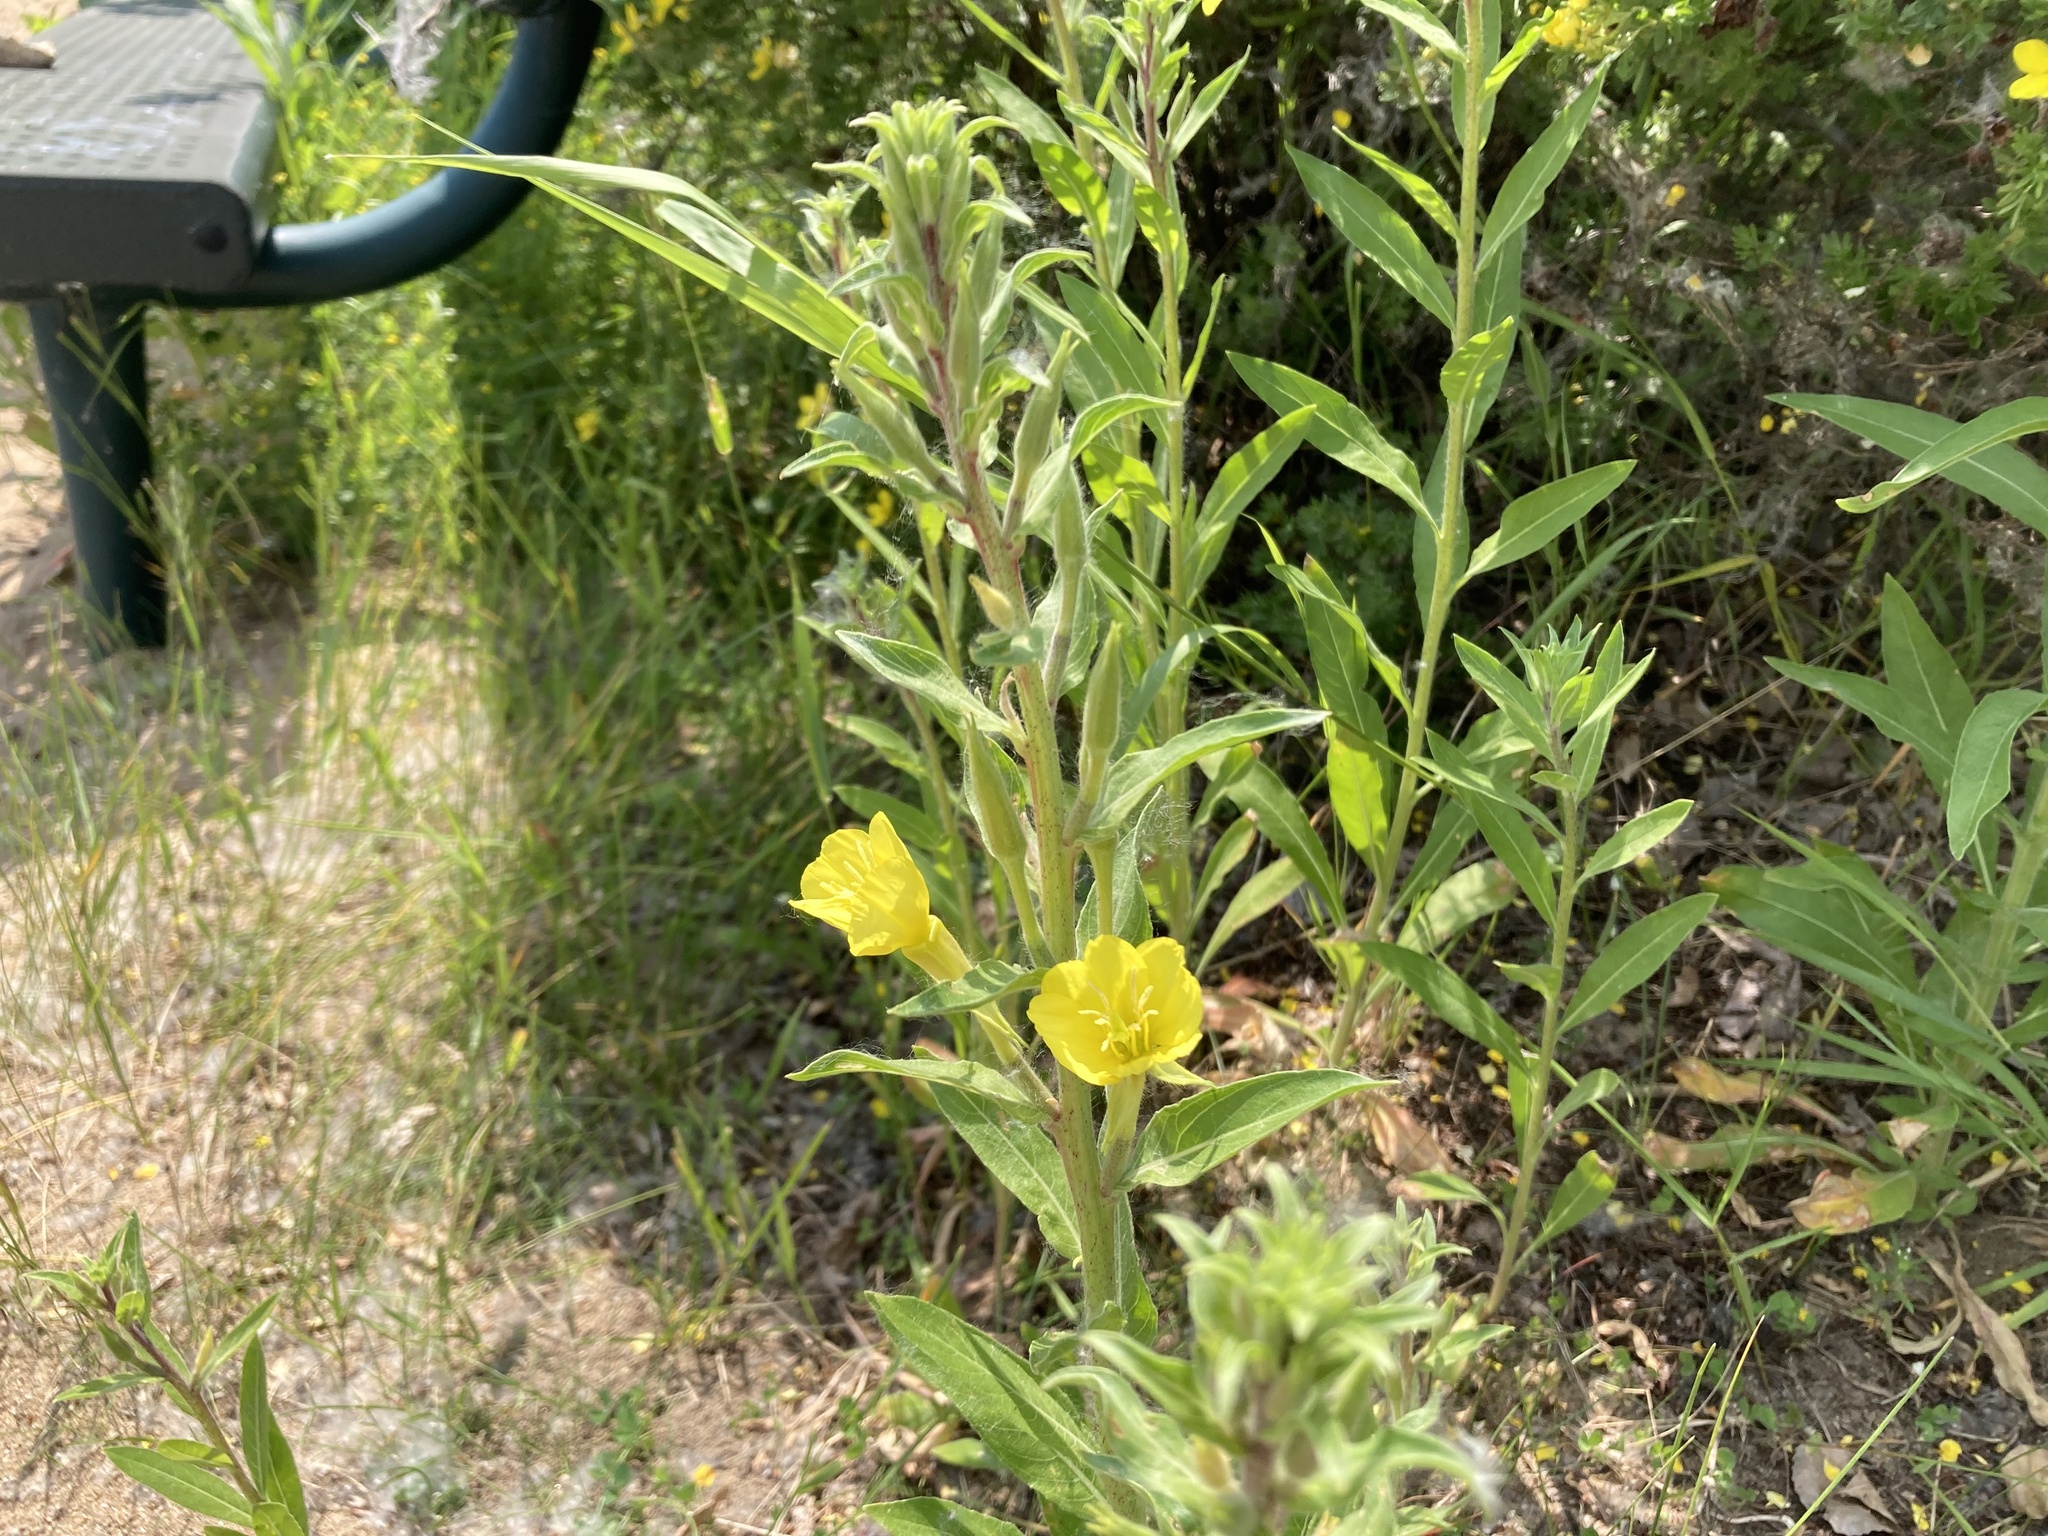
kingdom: Plantae
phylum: Tracheophyta
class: Magnoliopsida
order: Myrtales
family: Onagraceae
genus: Oenothera
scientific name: Oenothera villosa
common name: Hairy evening-primrose
